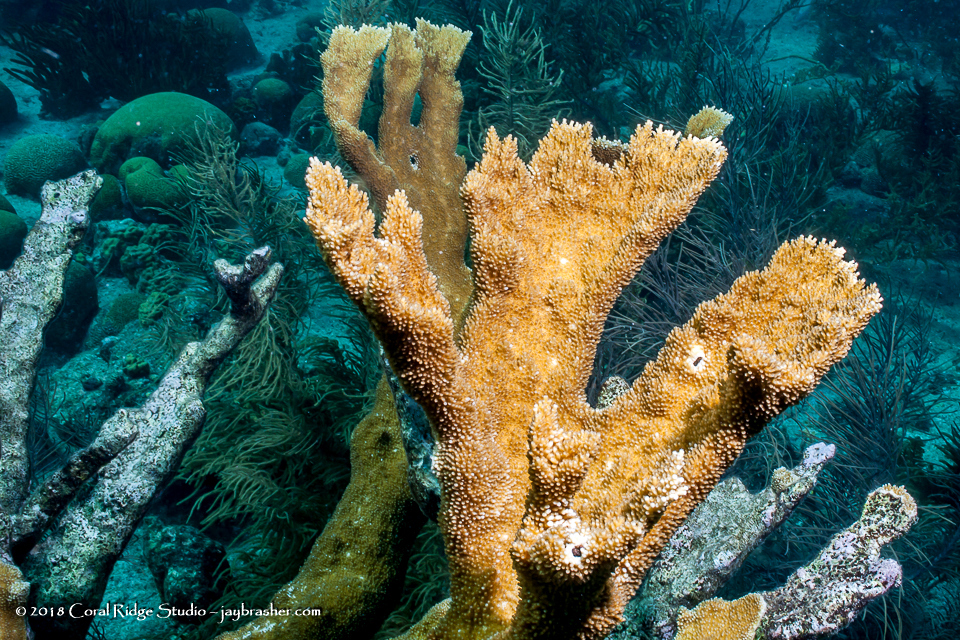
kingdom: Animalia
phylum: Cnidaria
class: Anthozoa
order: Scleractinia
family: Acroporidae
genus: Acropora
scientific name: Acropora palmata
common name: Elkhorn coral
